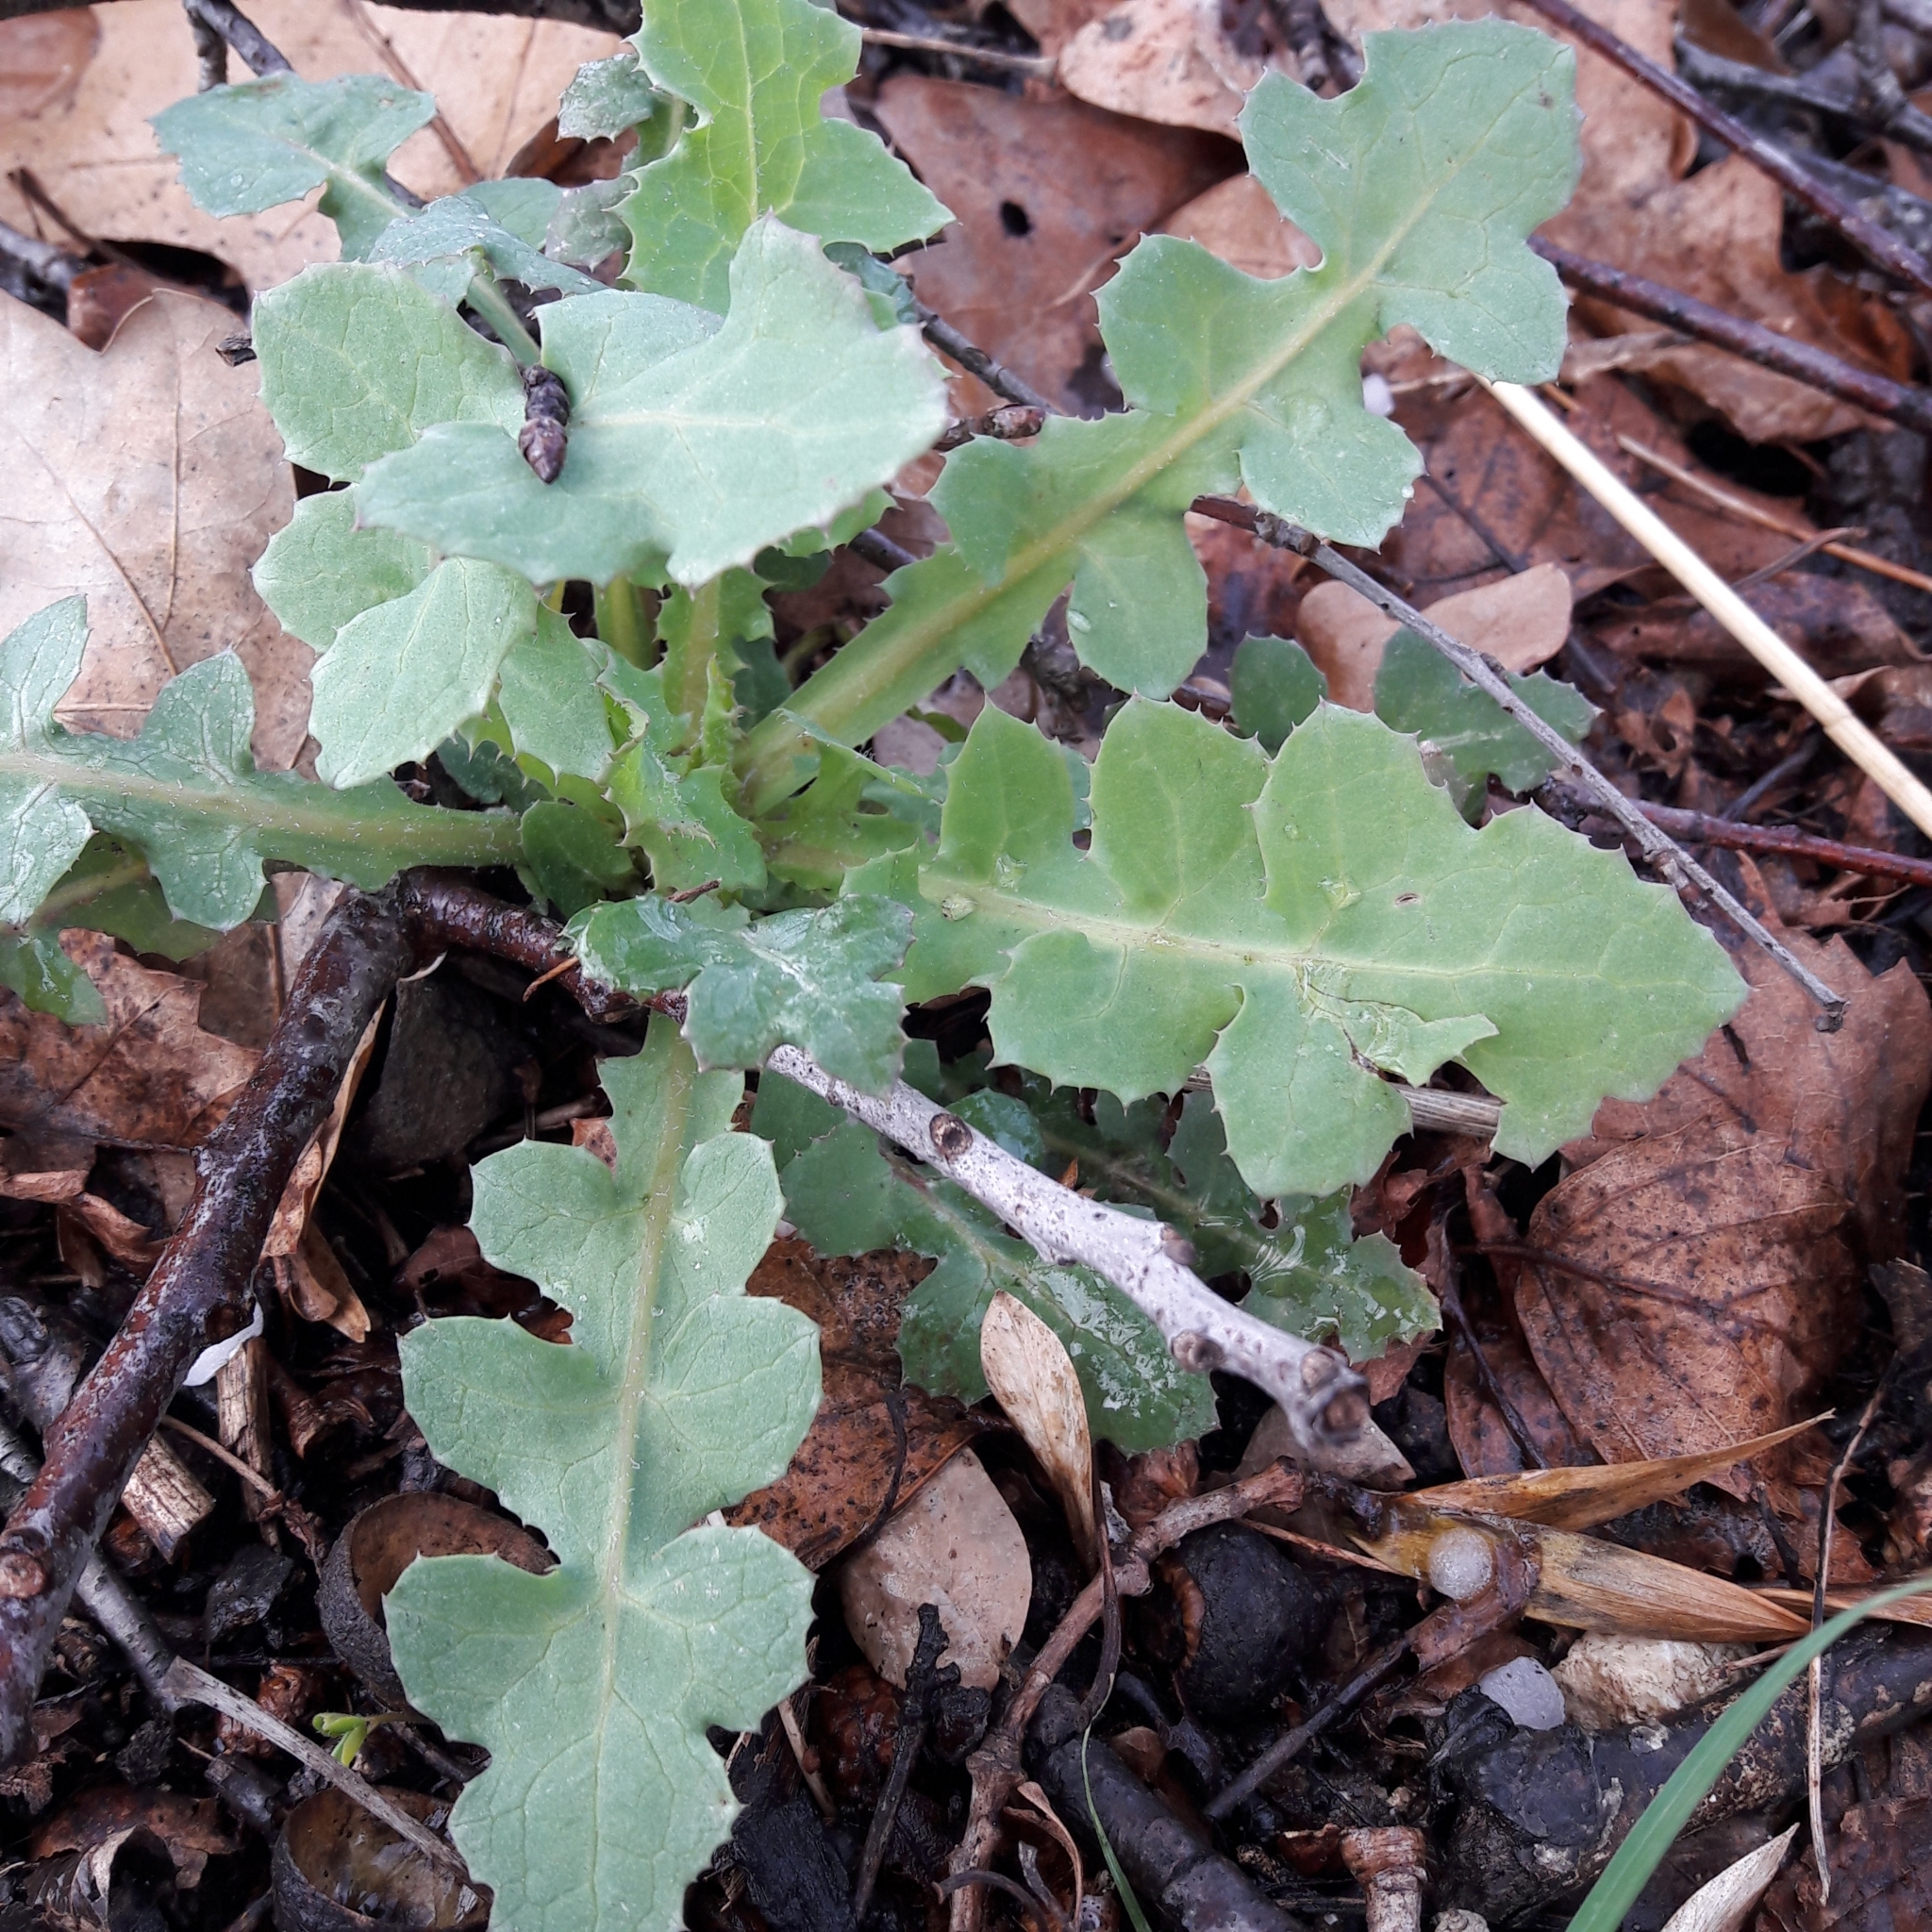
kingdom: Plantae
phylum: Tracheophyta
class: Magnoliopsida
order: Asterales
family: Asteraceae
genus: Sonchus
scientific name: Sonchus oleraceus
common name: Common sowthistle
